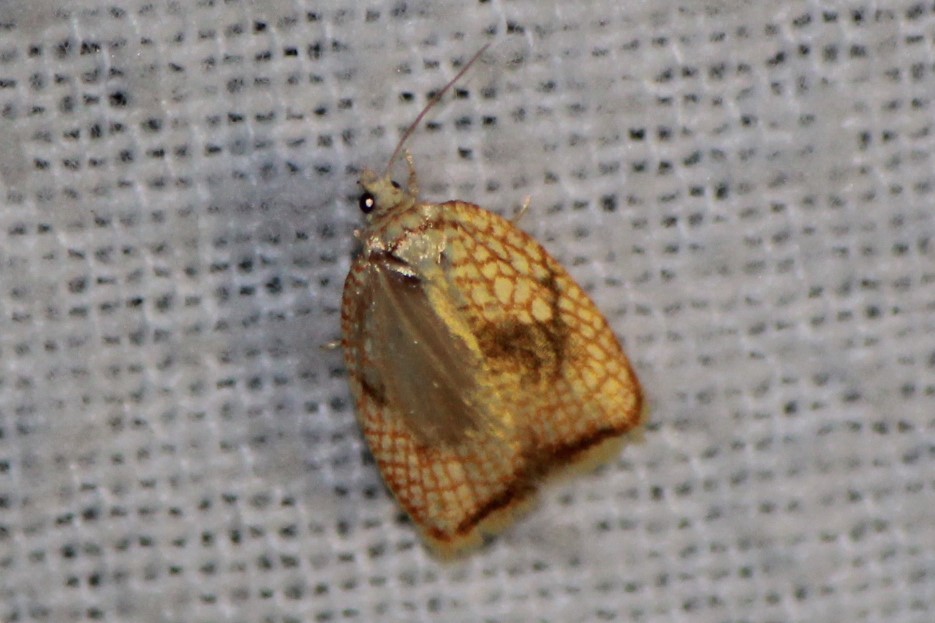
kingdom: Animalia
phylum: Arthropoda
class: Insecta
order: Lepidoptera
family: Tortricidae
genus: Acleris
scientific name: Acleris forsskaleana
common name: Maple button
